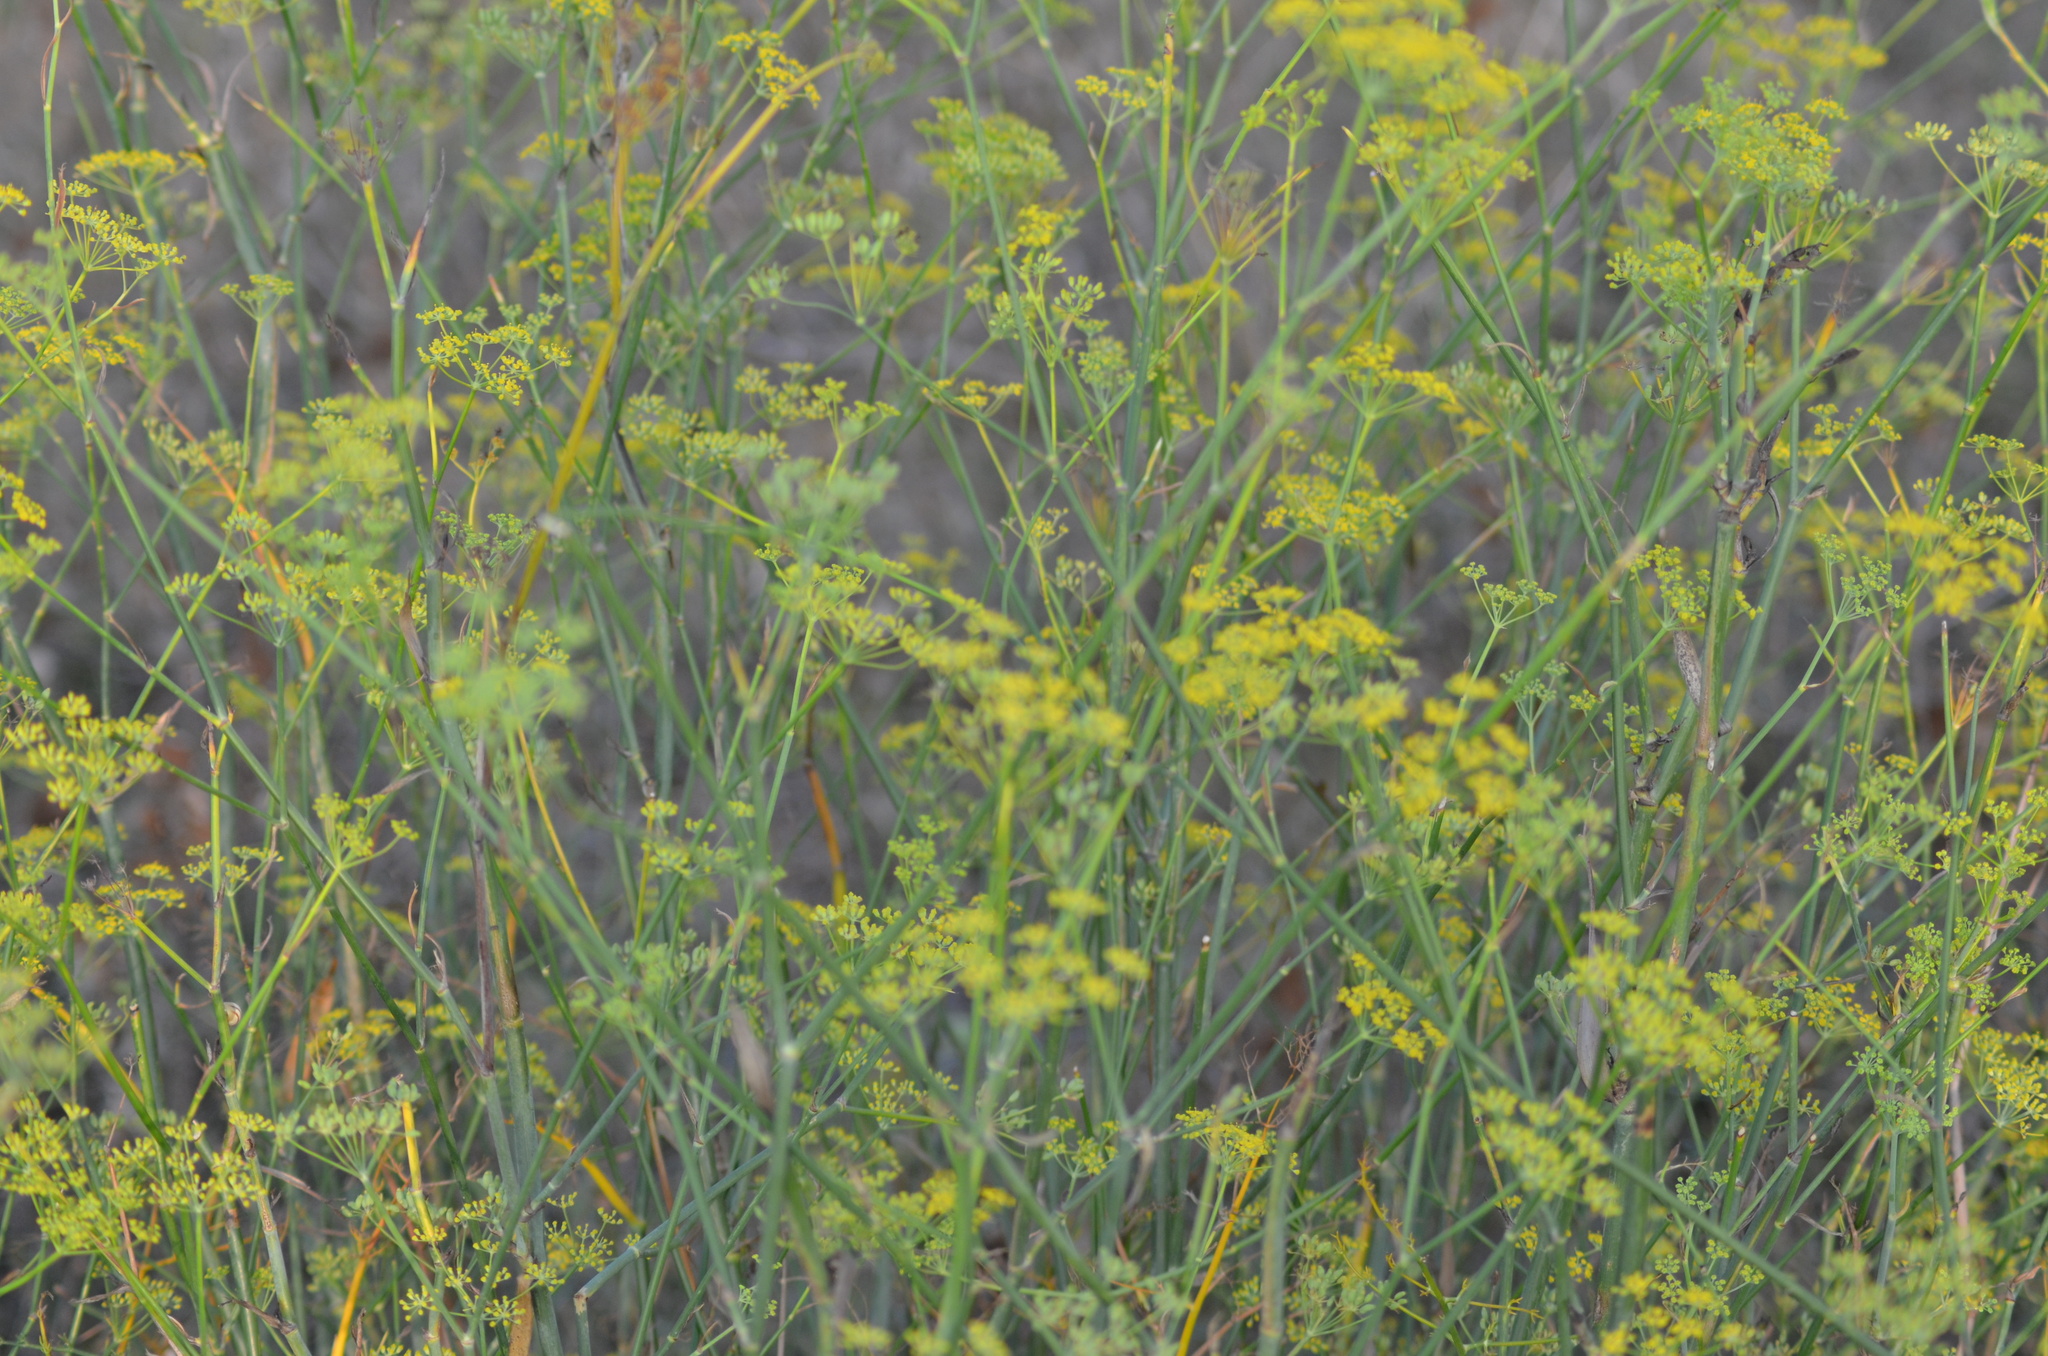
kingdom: Plantae
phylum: Tracheophyta
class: Magnoliopsida
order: Apiales
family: Apiaceae
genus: Foeniculum
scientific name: Foeniculum vulgare
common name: Fennel
